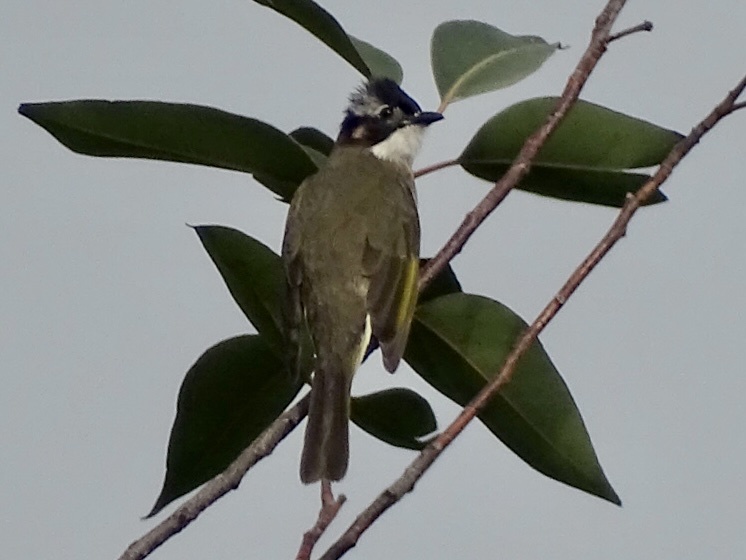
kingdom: Animalia
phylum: Chordata
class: Aves
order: Passeriformes
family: Pycnonotidae
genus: Pycnonotus
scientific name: Pycnonotus sinensis
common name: Light-vented bulbul
